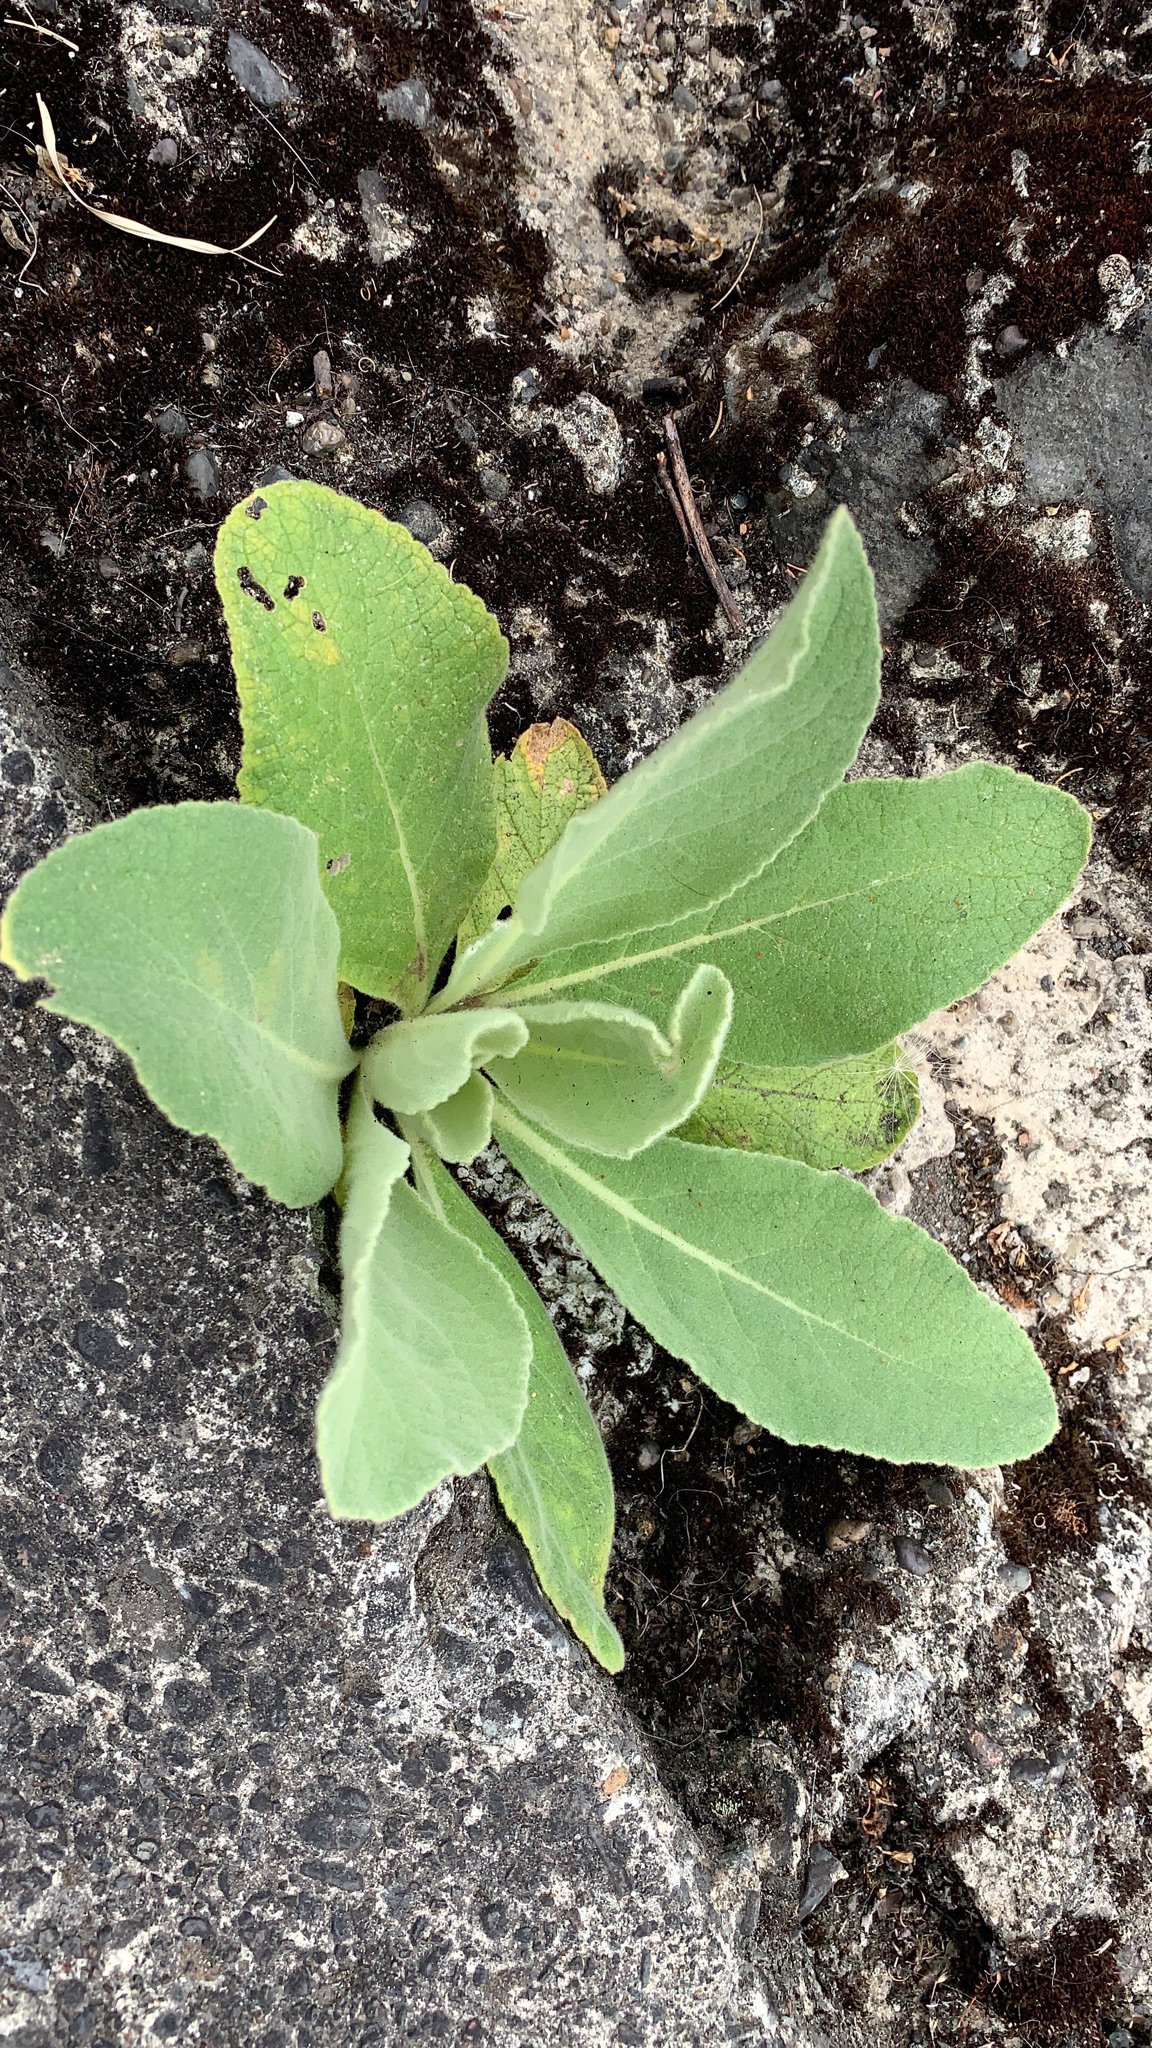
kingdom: Plantae
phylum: Tracheophyta
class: Magnoliopsida
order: Lamiales
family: Scrophulariaceae
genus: Verbascum
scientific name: Verbascum thapsus
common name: Common mullein
